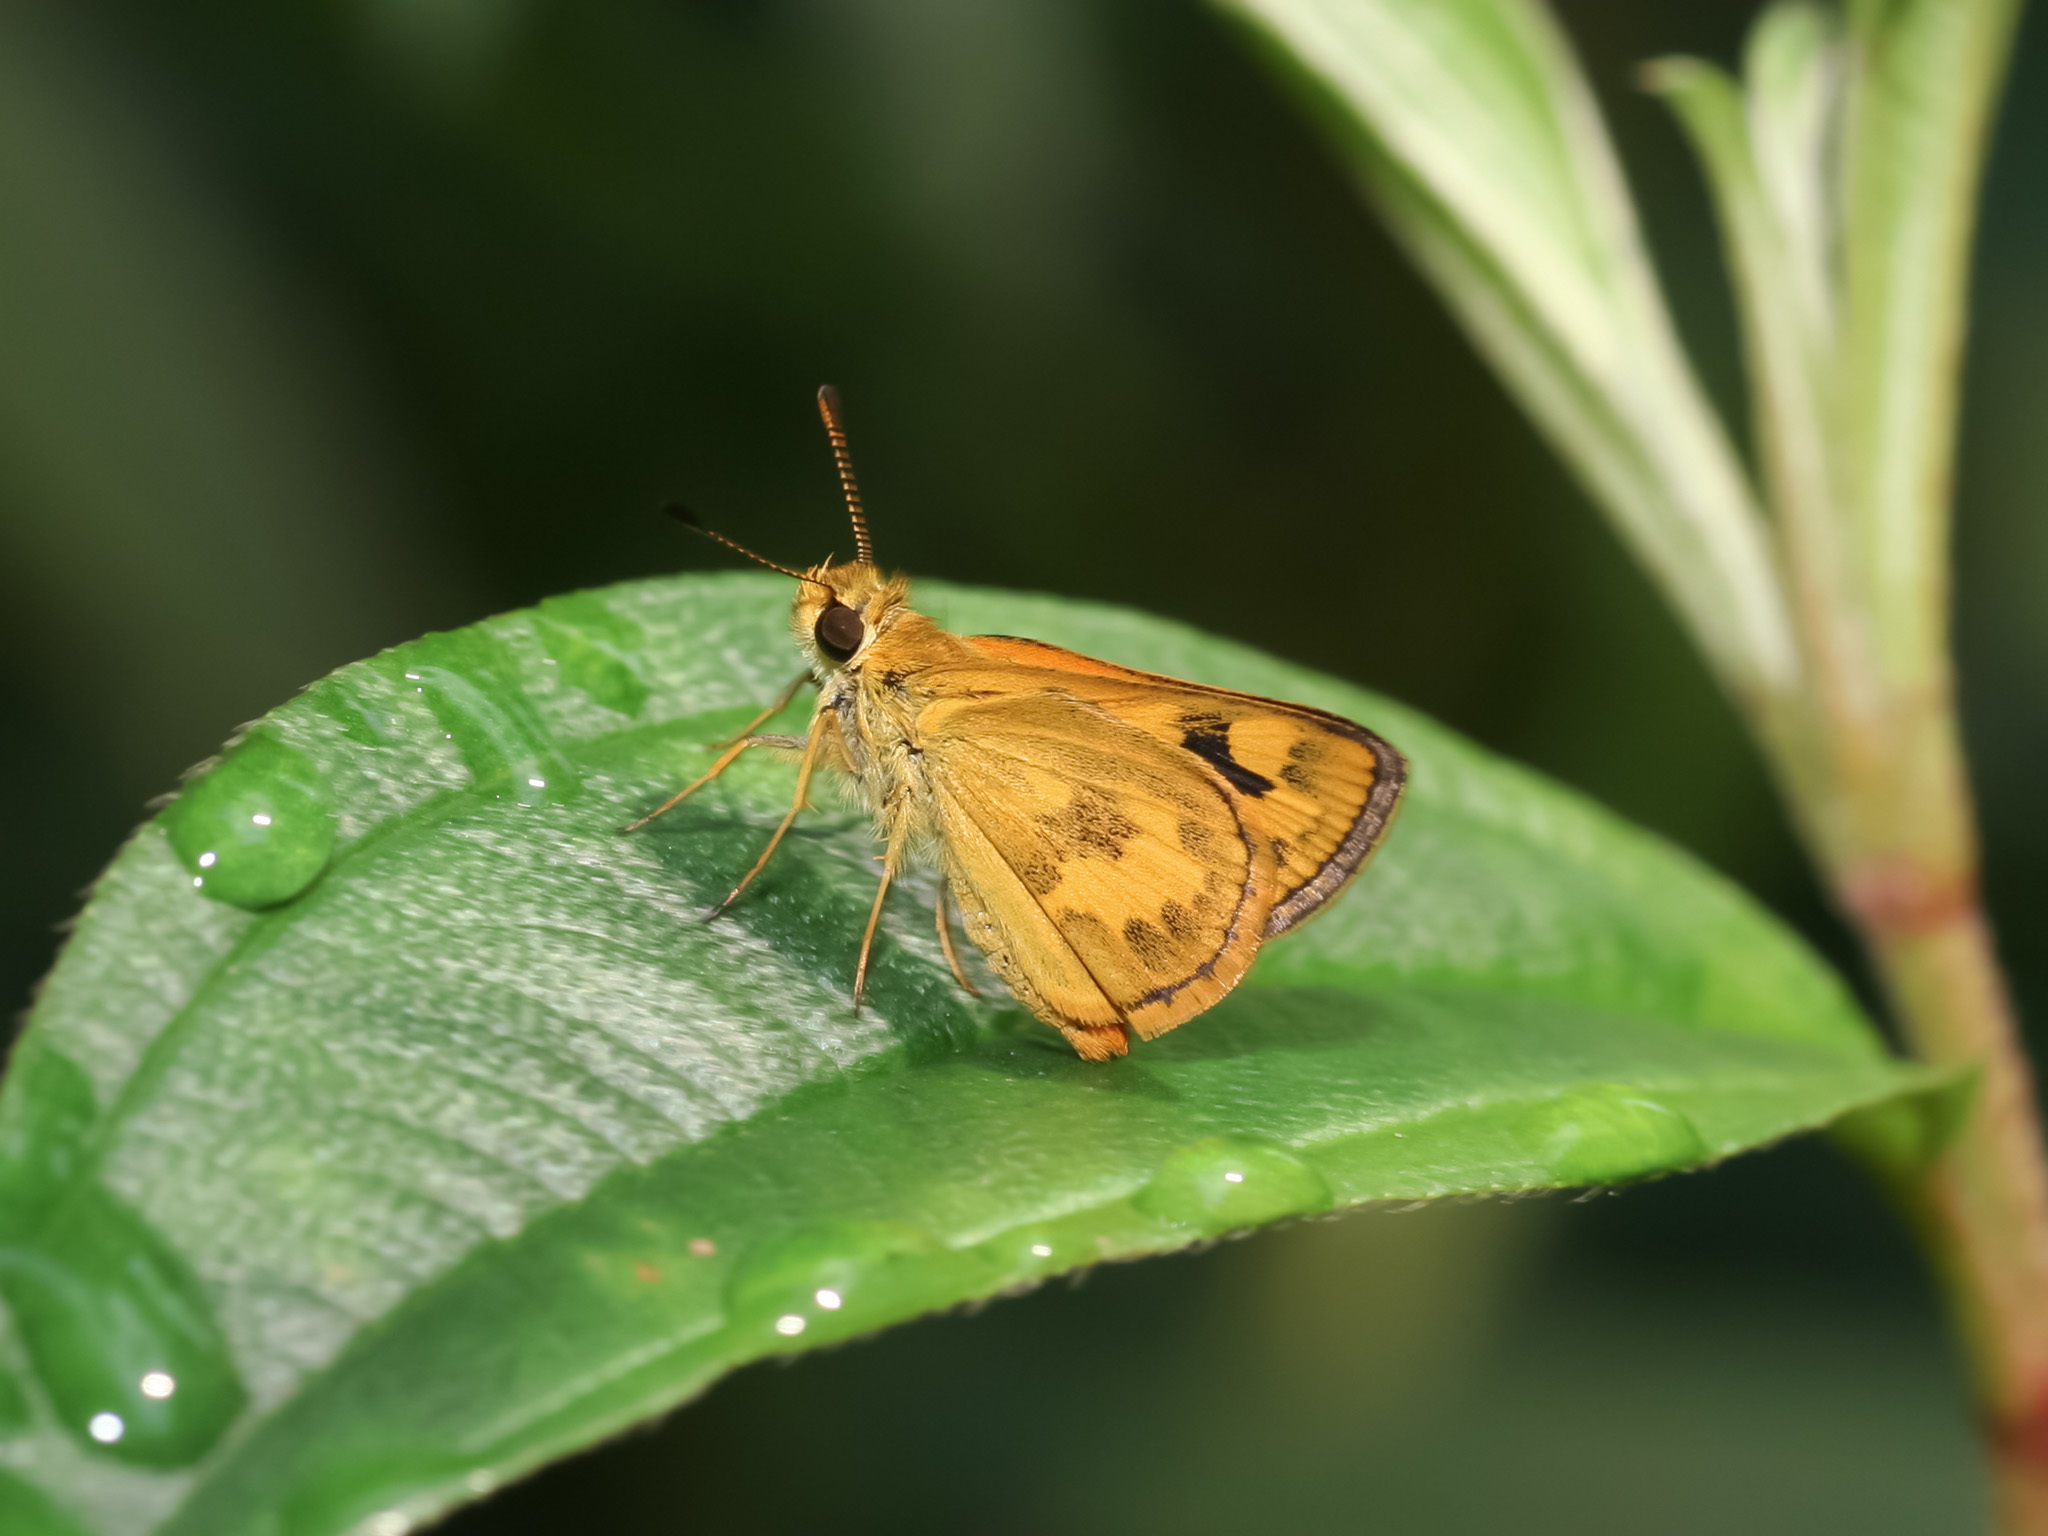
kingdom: Animalia
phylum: Arthropoda
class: Insecta
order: Lepidoptera
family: Hesperiidae
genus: Taractrocera
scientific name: Taractrocera archias
